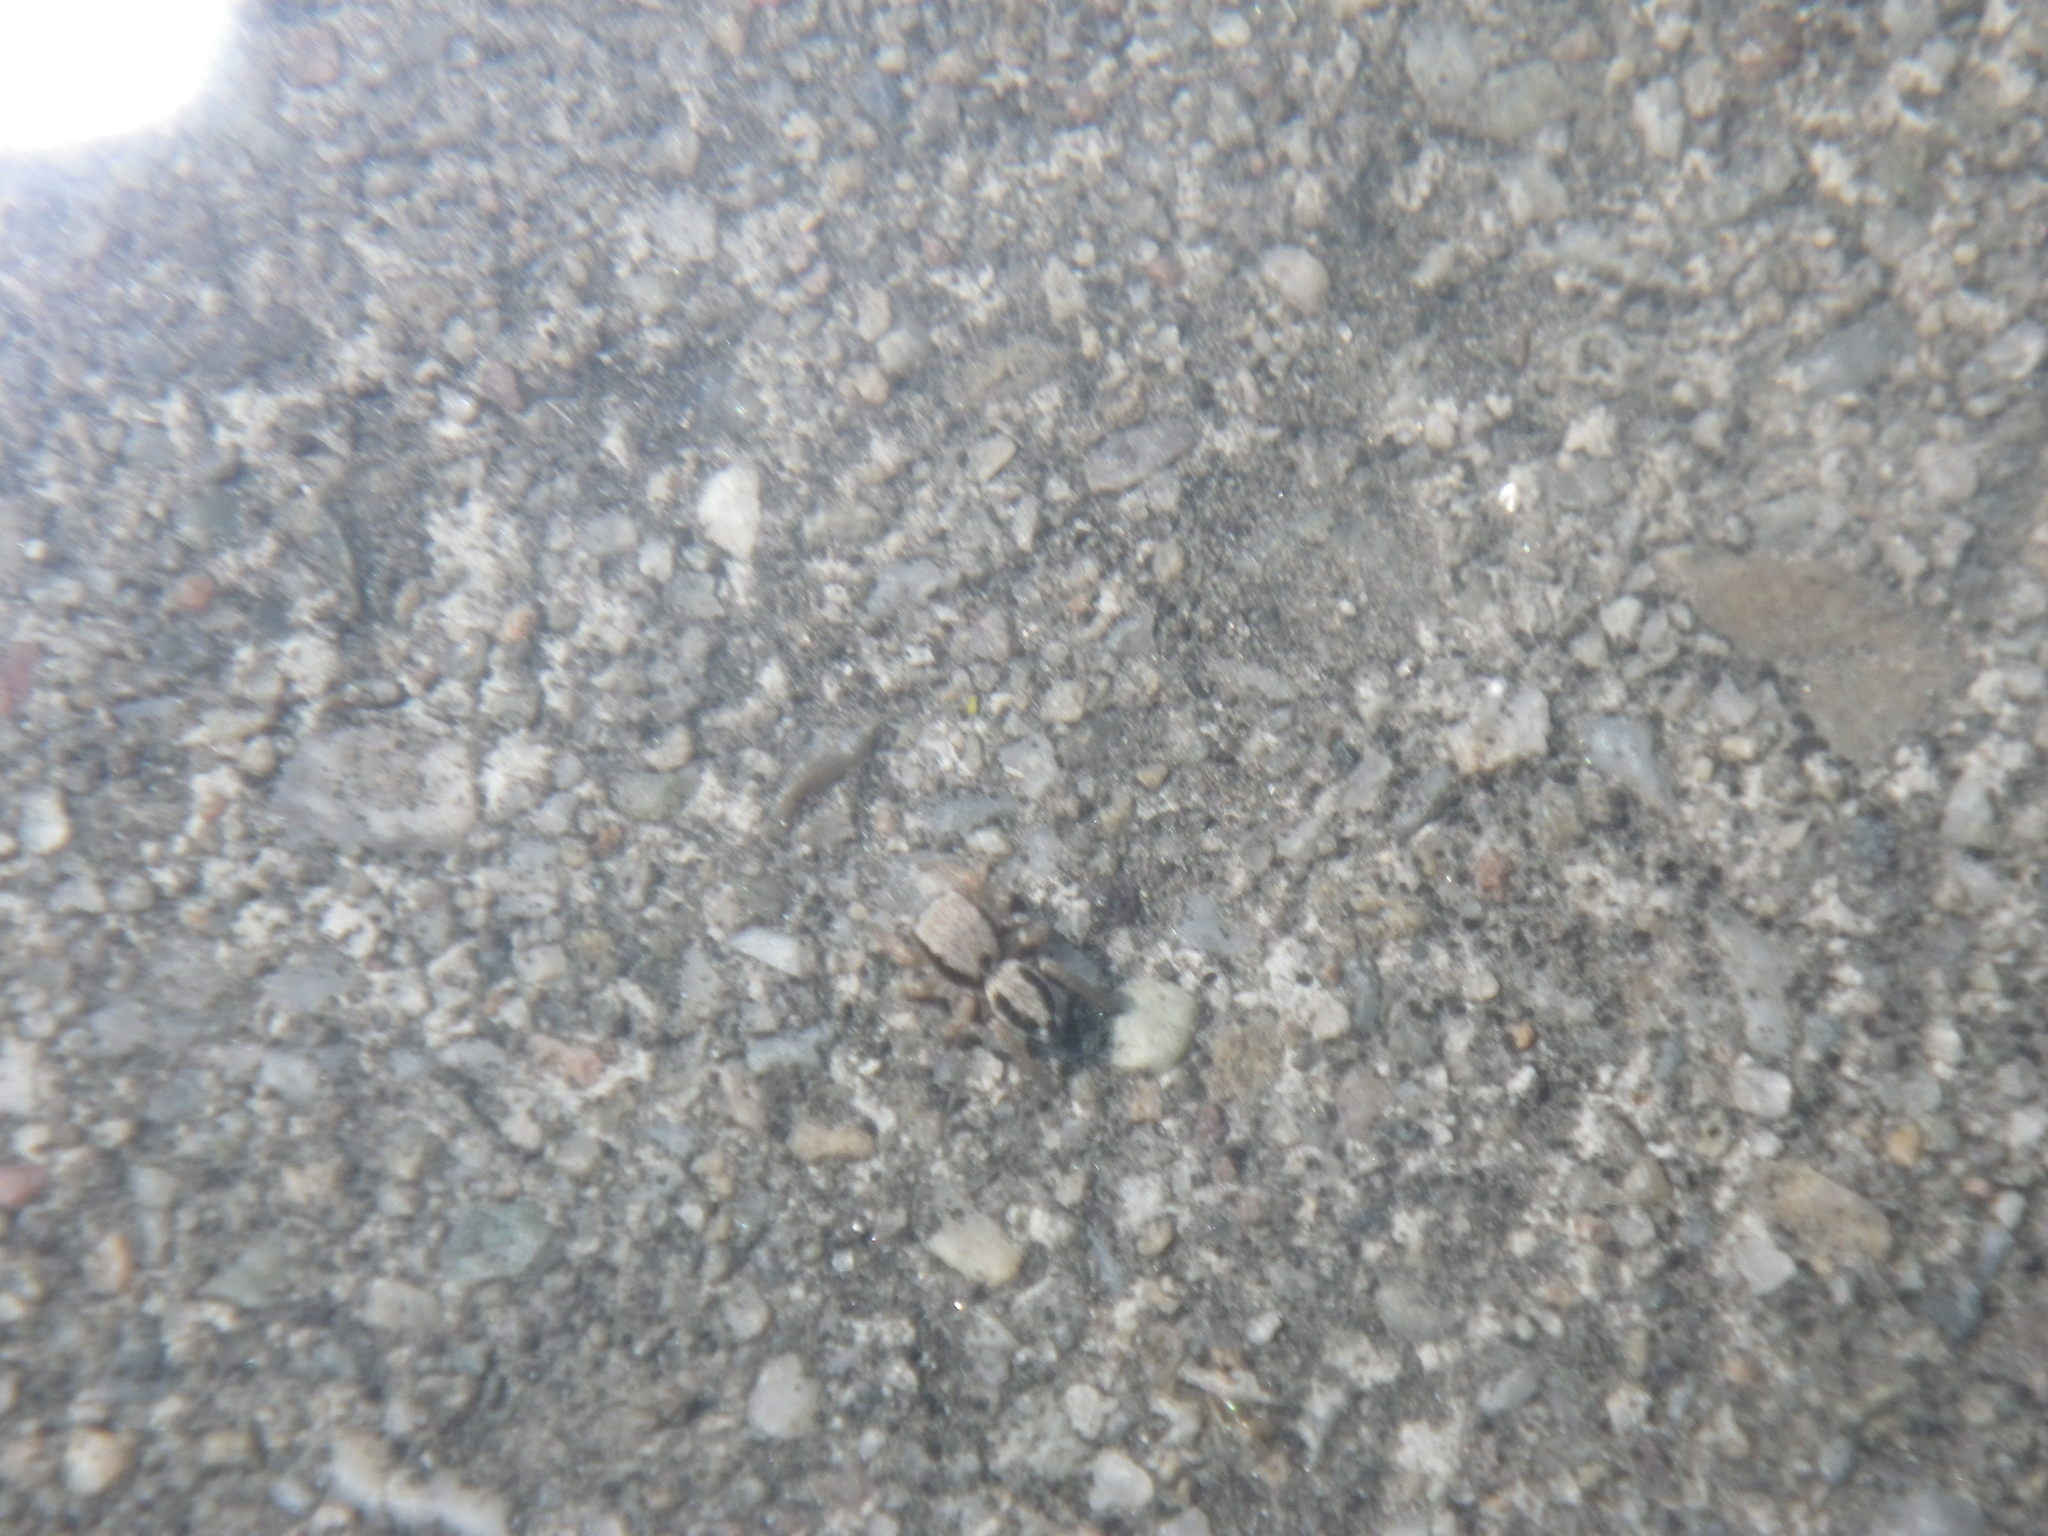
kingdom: Animalia
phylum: Arthropoda
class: Arachnida
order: Araneae
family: Salticidae
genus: Habronattus
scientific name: Habronattus pyrrithrix
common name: Jumping spider
